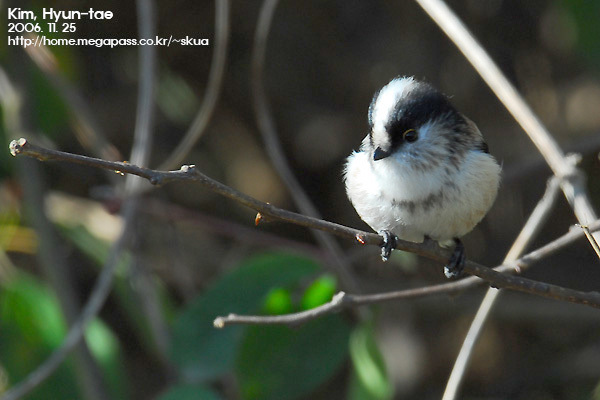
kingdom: Animalia
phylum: Chordata
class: Aves
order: Passeriformes
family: Aegithalidae
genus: Aegithalos
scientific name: Aegithalos caudatus
